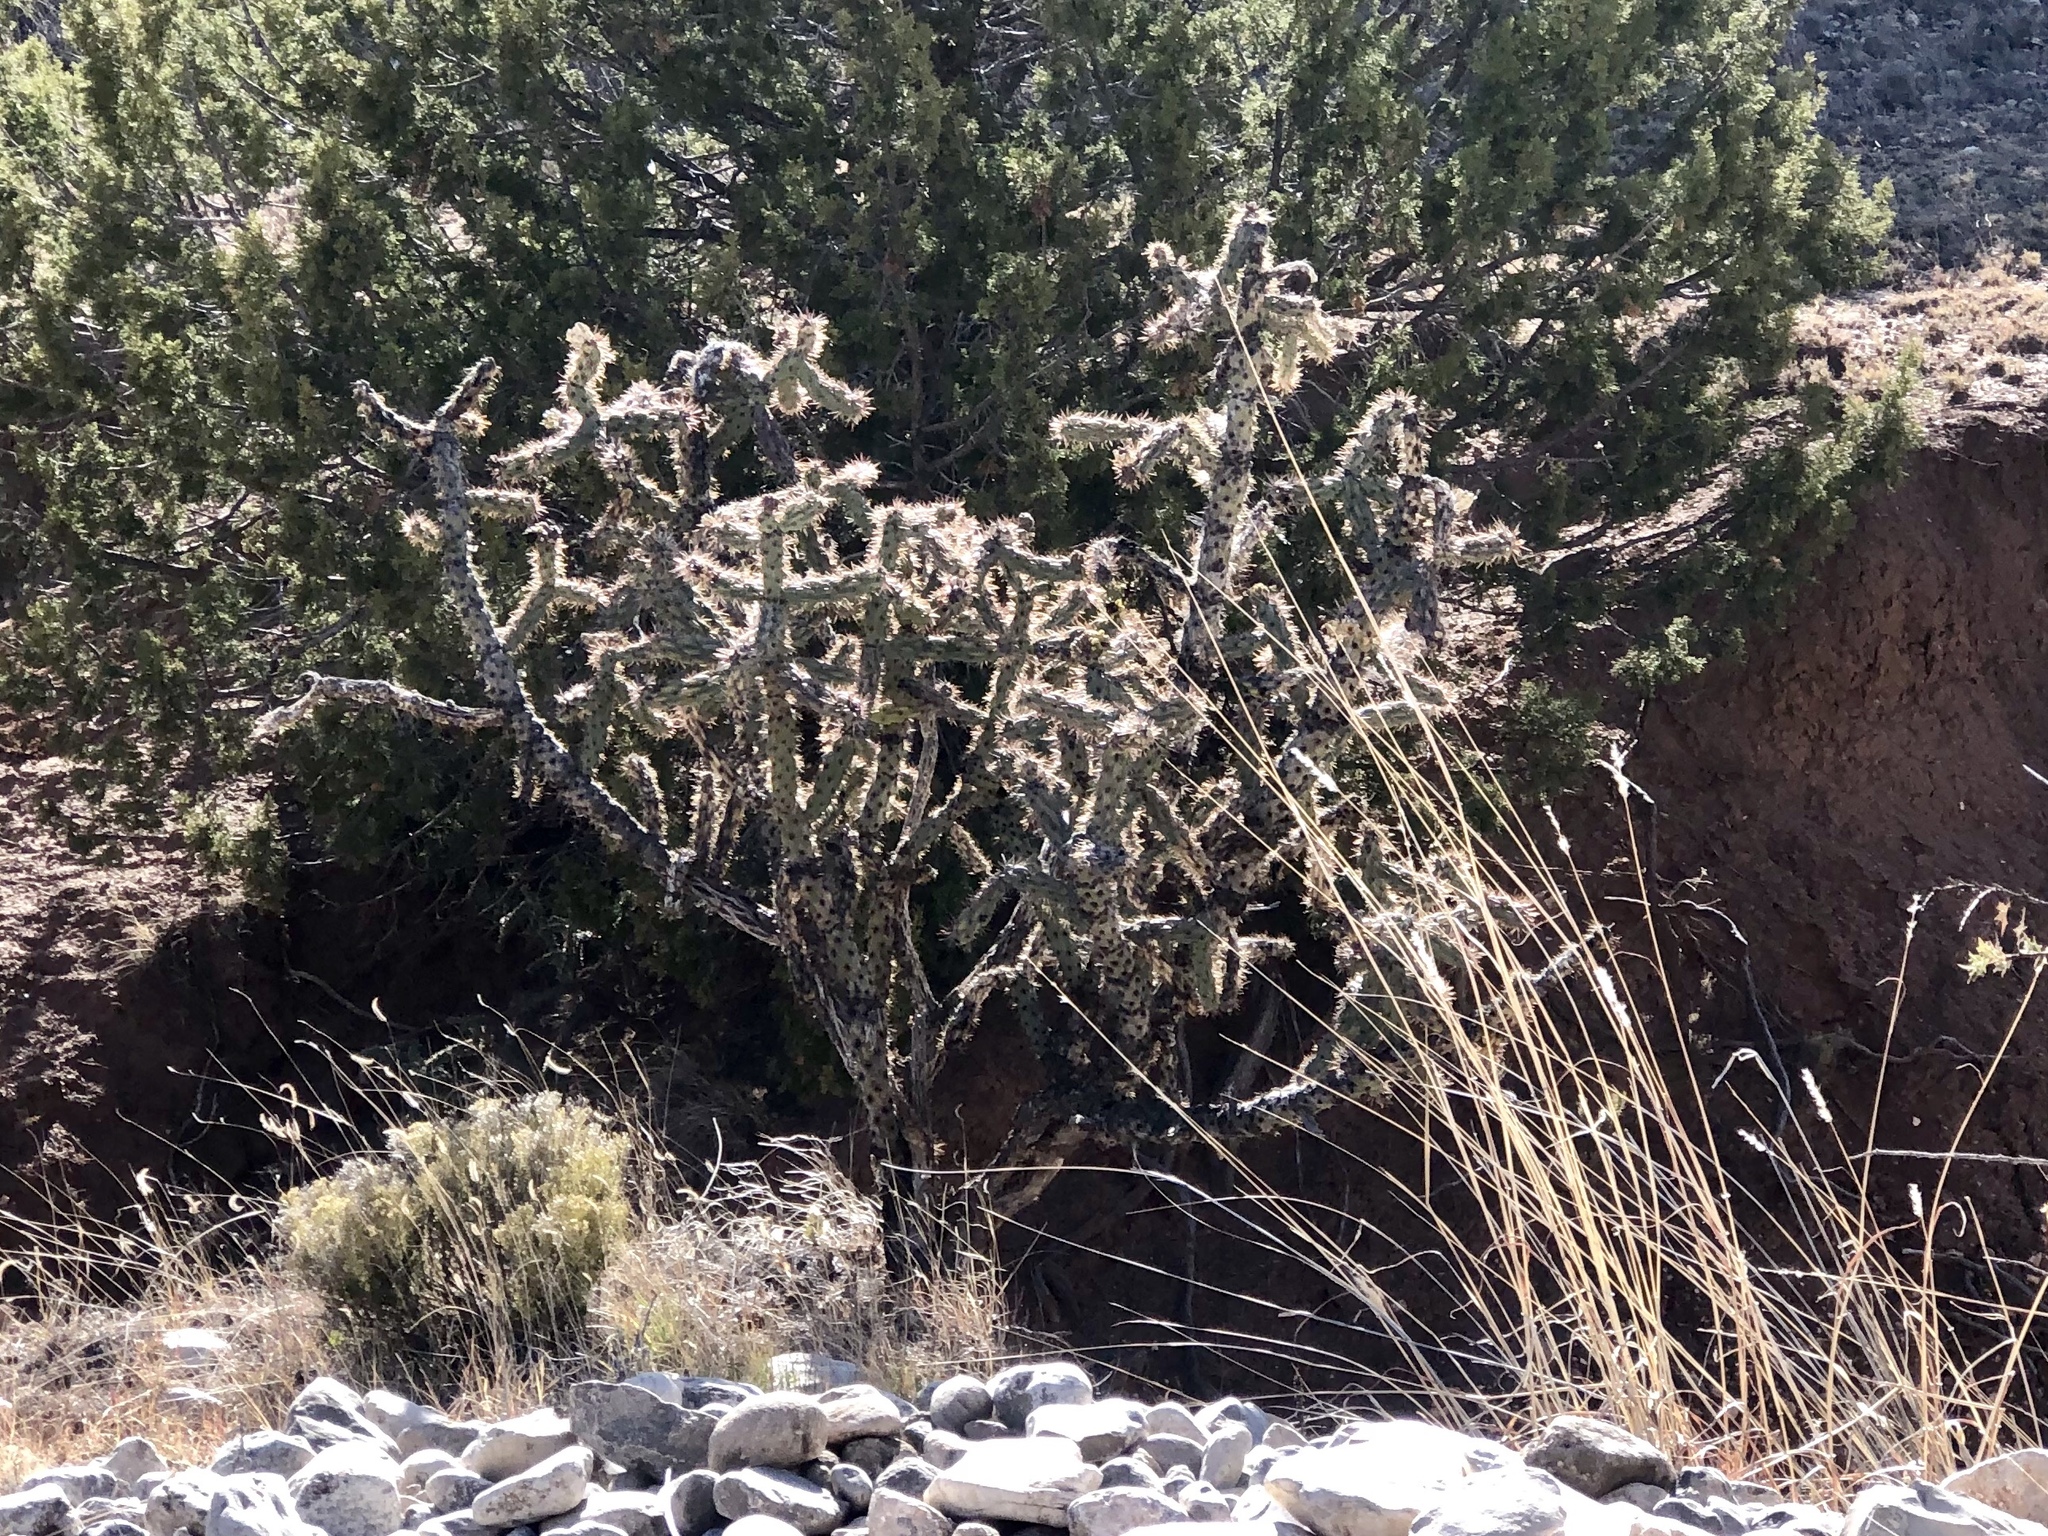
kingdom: Plantae
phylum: Tracheophyta
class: Magnoliopsida
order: Caryophyllales
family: Cactaceae
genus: Cylindropuntia
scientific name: Cylindropuntia imbricata
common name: Candelabrum cactus
